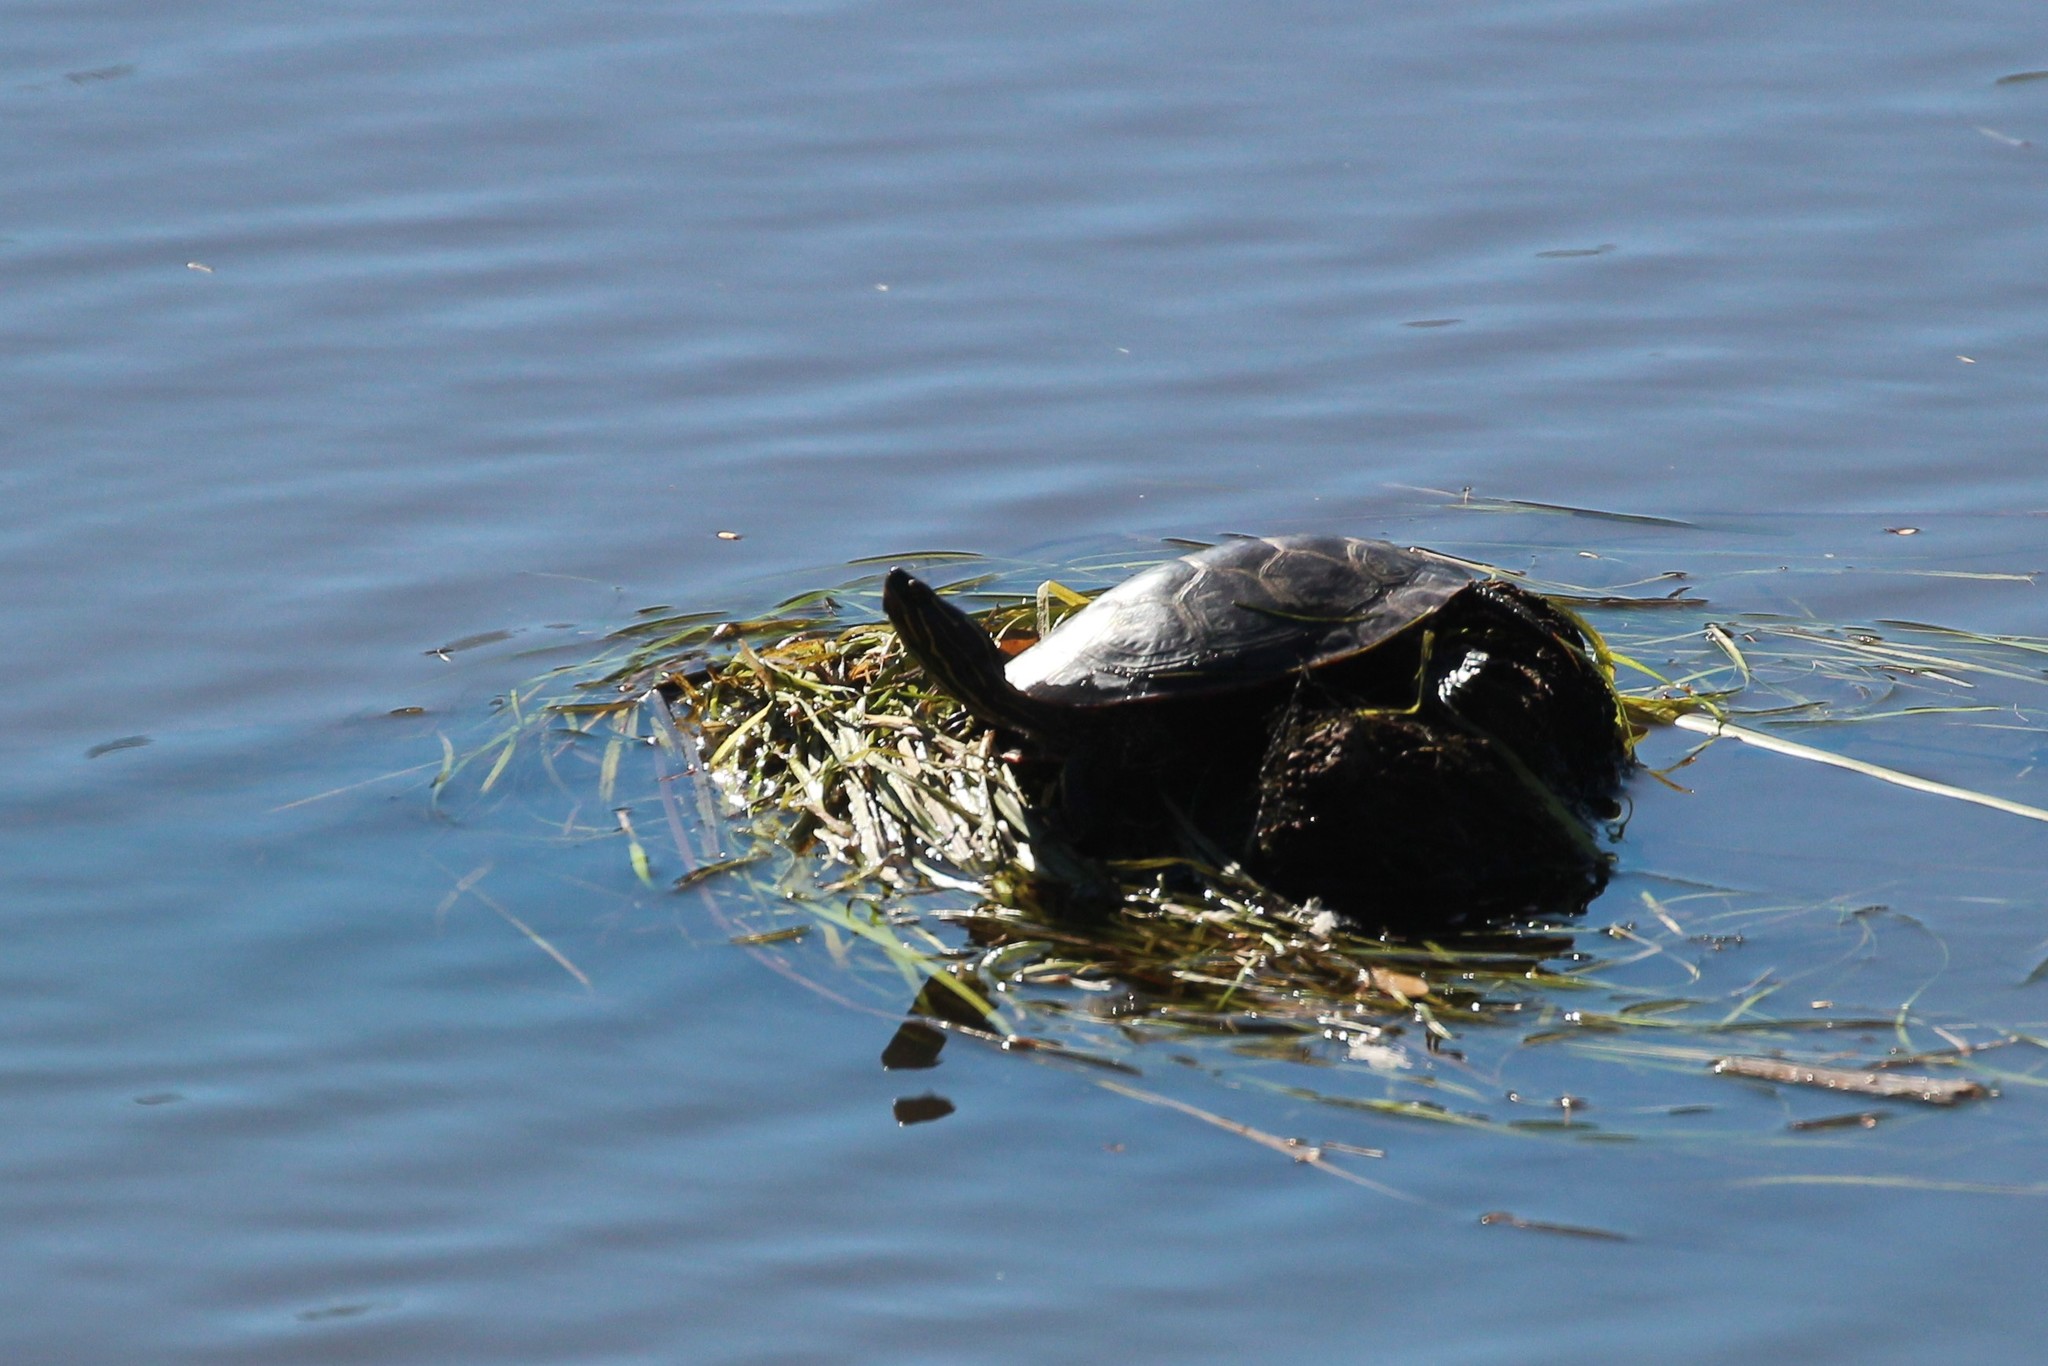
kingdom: Animalia
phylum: Chordata
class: Testudines
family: Emydidae
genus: Chrysemys
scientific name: Chrysemys picta
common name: Painted turtle
